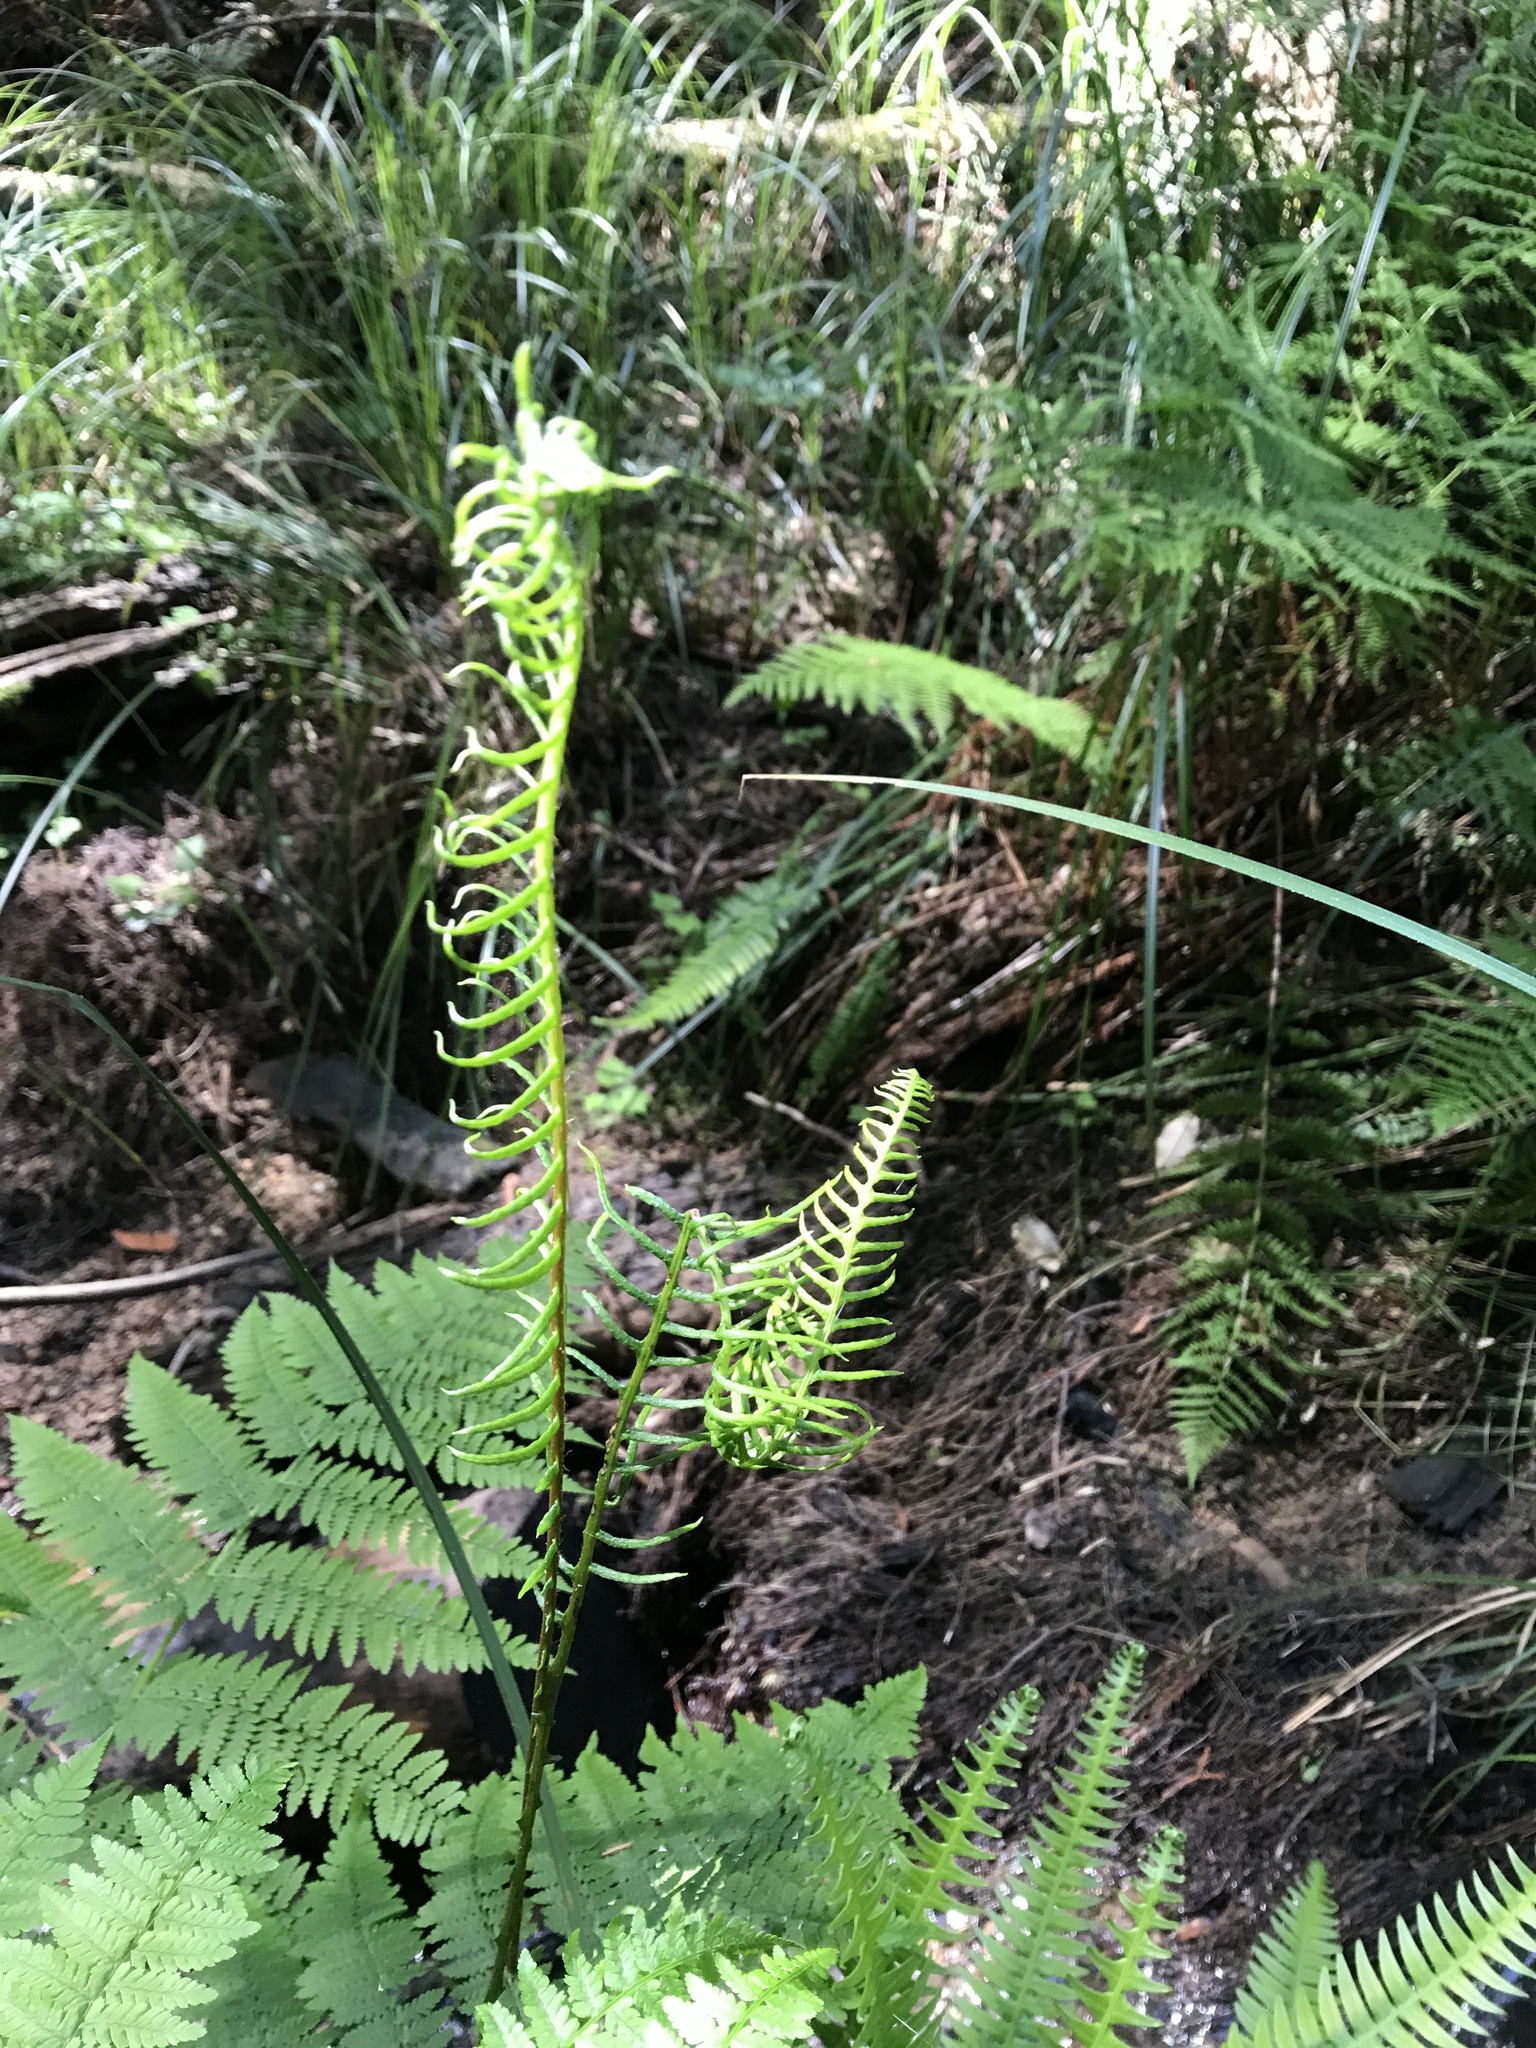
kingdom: Plantae
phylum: Tracheophyta
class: Polypodiopsida
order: Polypodiales
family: Blechnaceae
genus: Struthiopteris
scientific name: Struthiopteris spicant
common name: Deer fern
